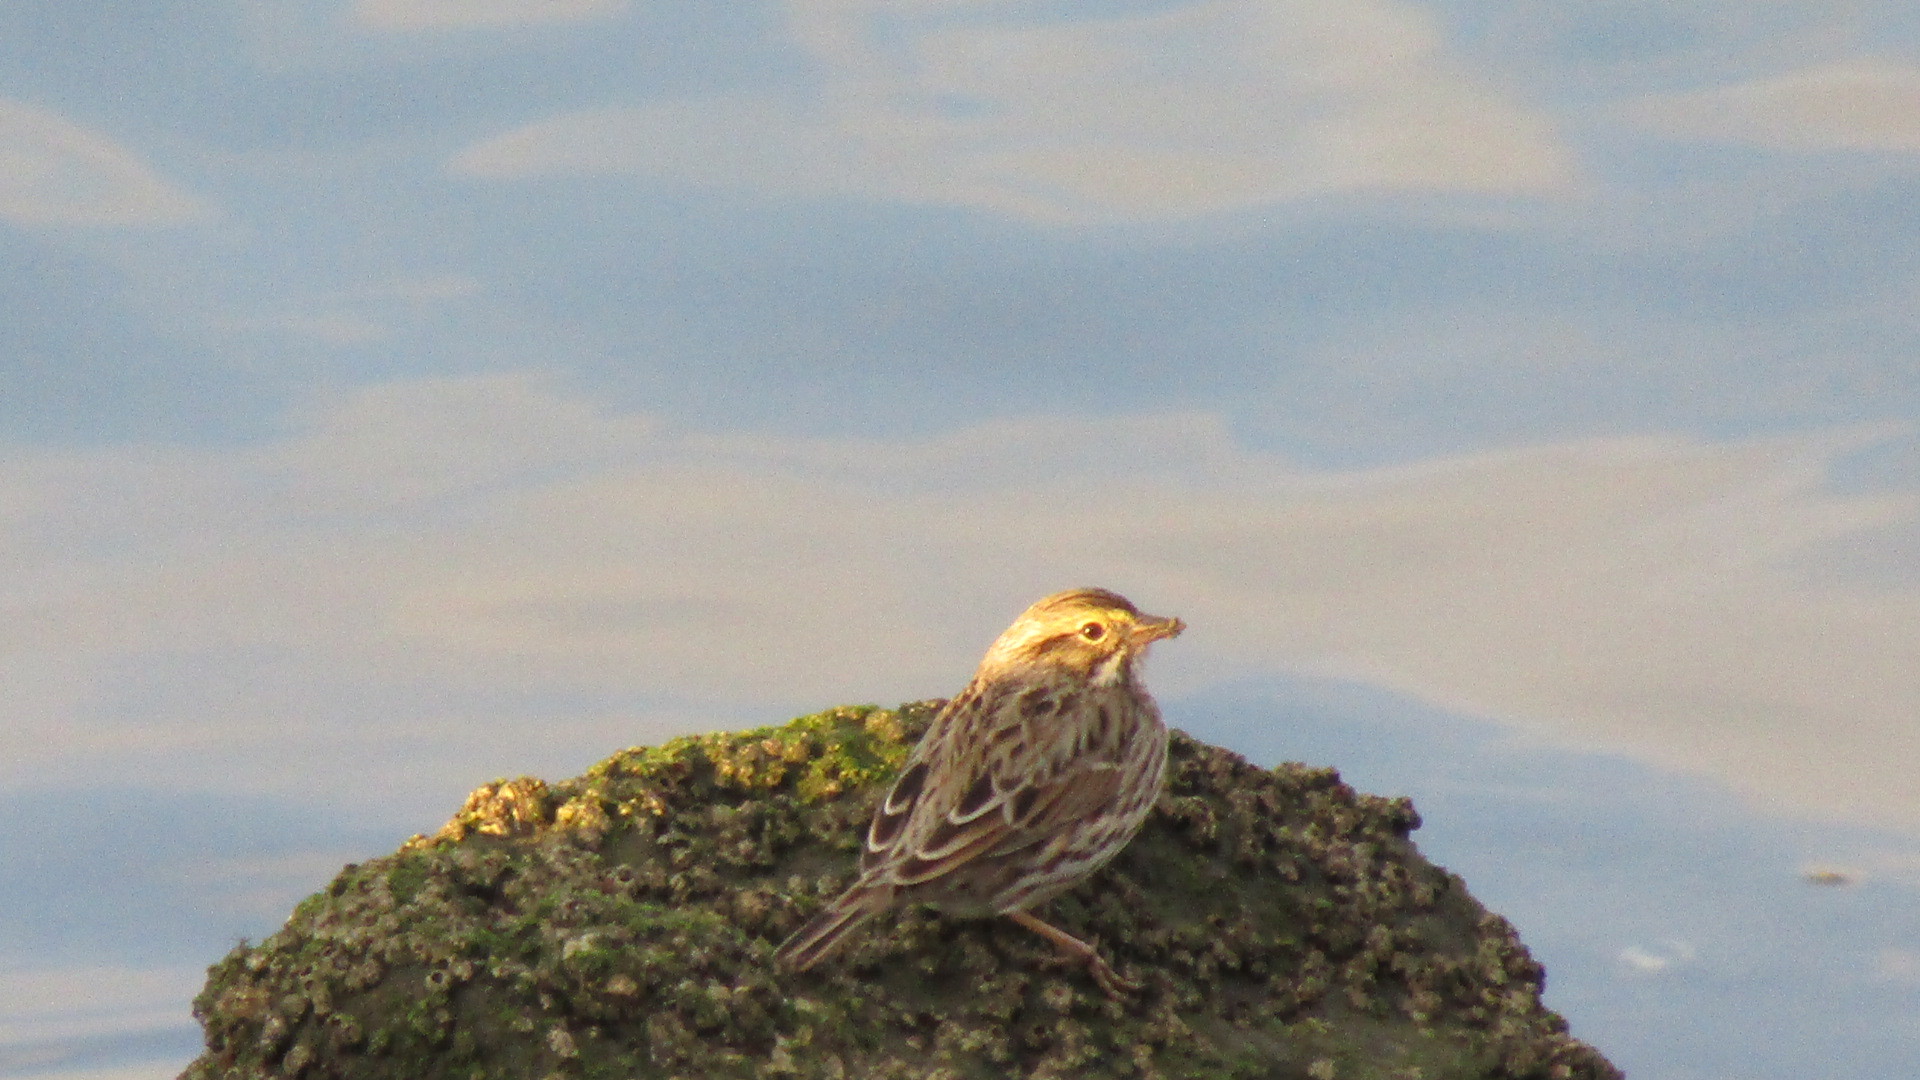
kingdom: Animalia
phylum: Chordata
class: Aves
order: Passeriformes
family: Passerellidae
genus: Passerculus
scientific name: Passerculus sandwichensis
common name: Savannah sparrow
